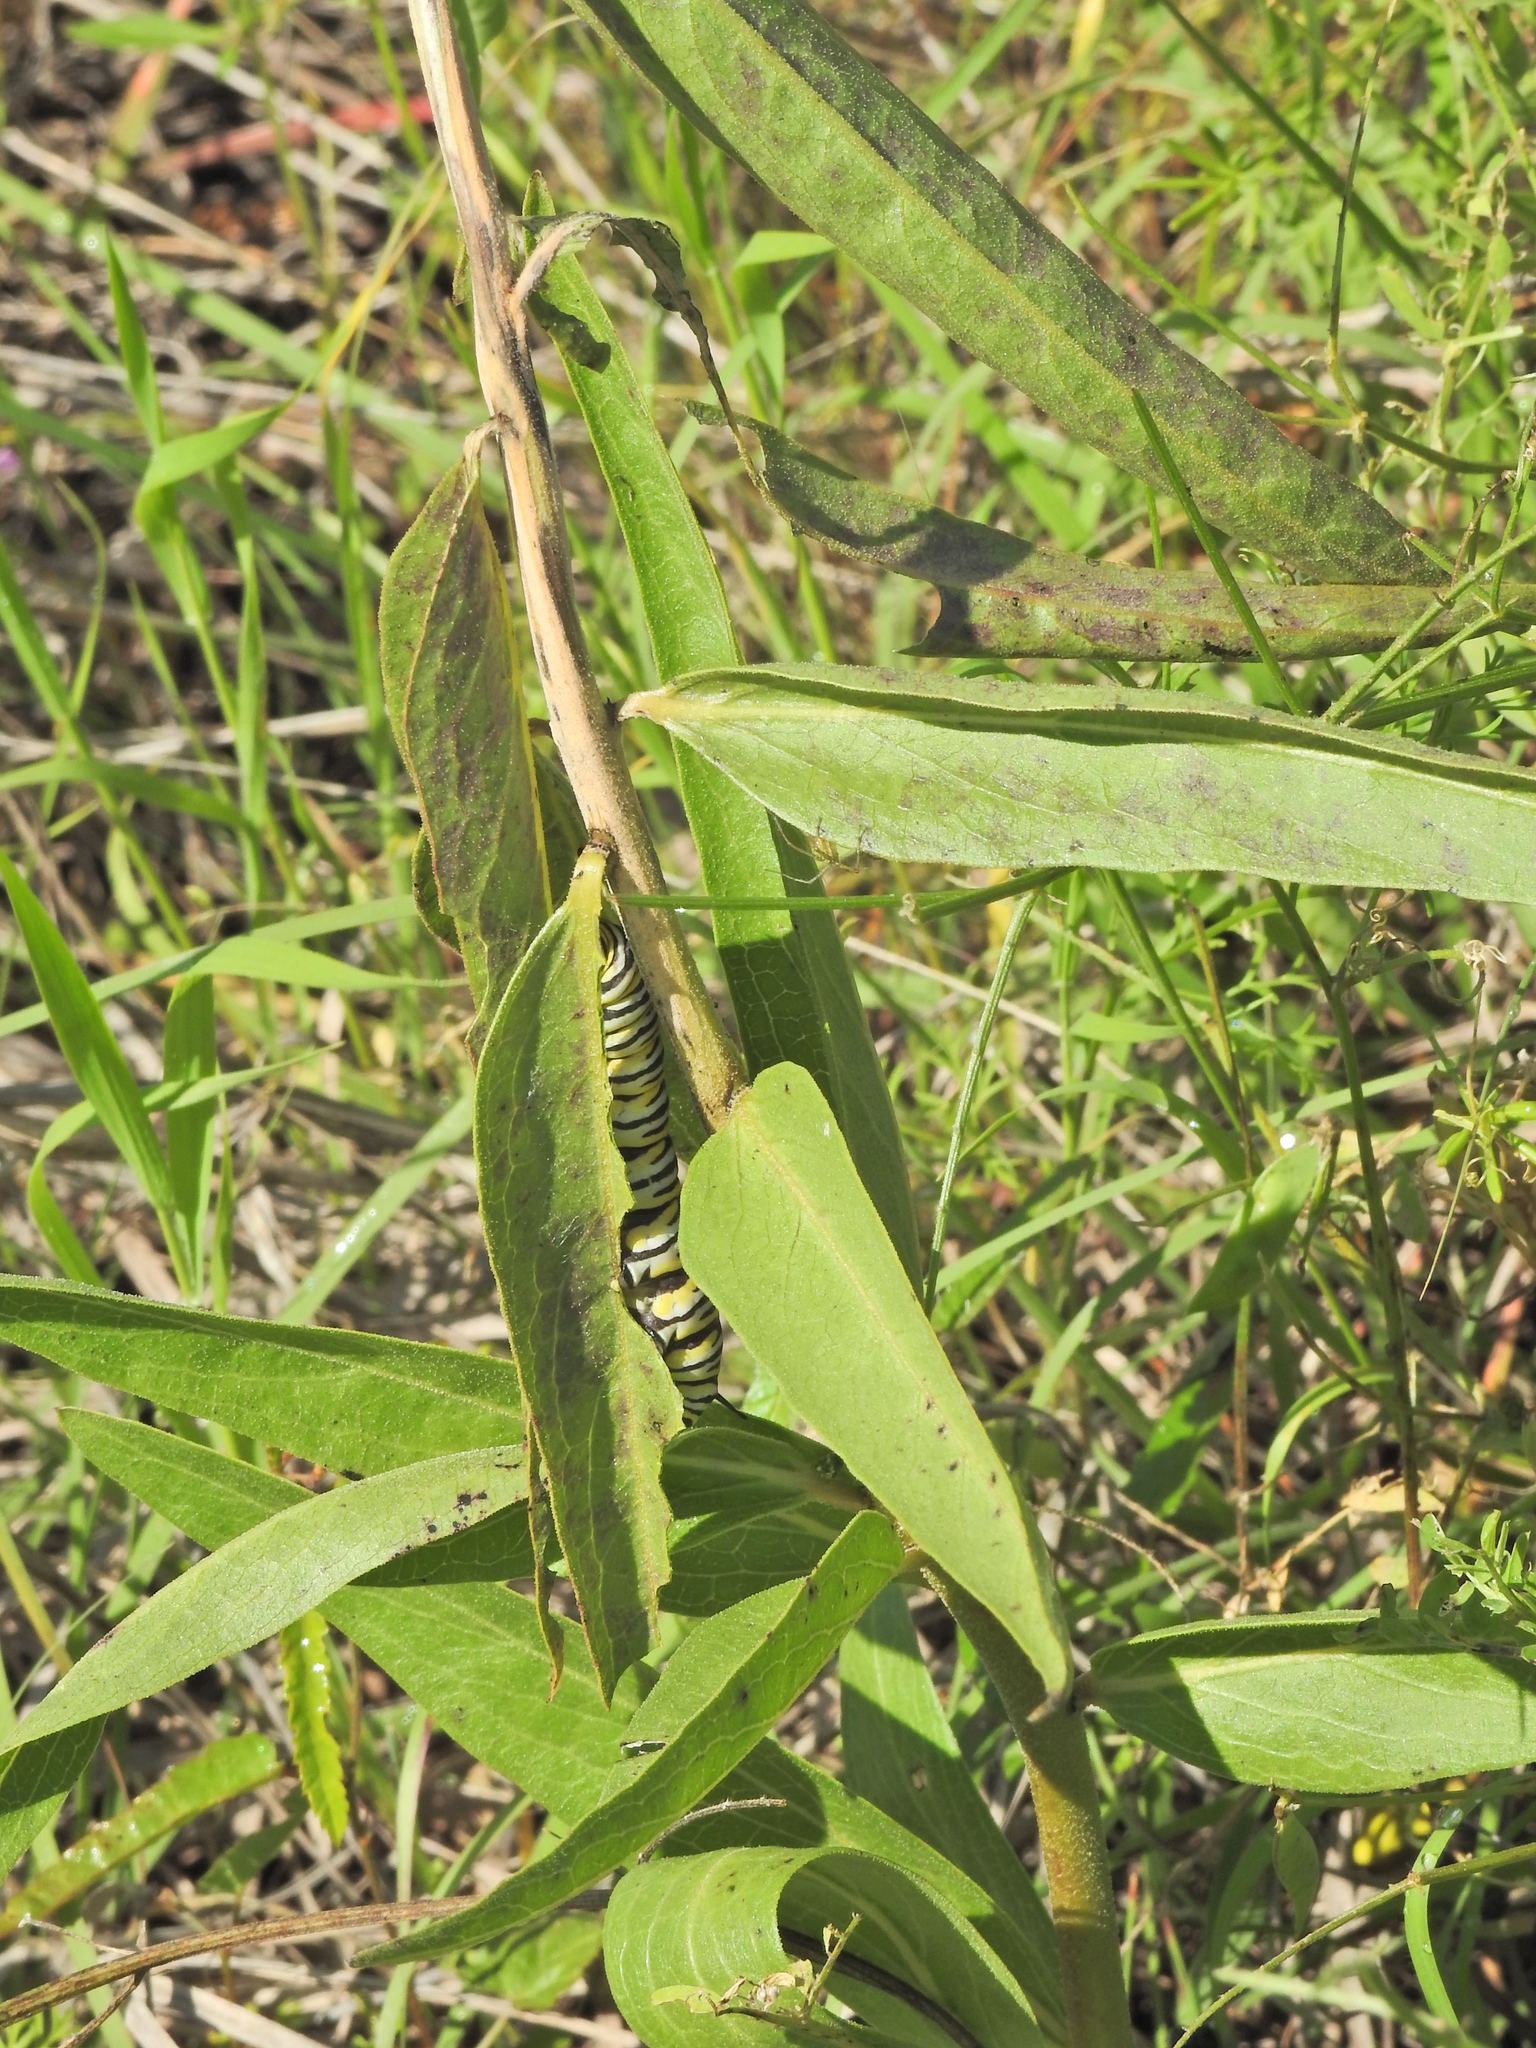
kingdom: Animalia
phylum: Arthropoda
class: Insecta
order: Lepidoptera
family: Nymphalidae
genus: Danaus
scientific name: Danaus plexippus
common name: Monarch
